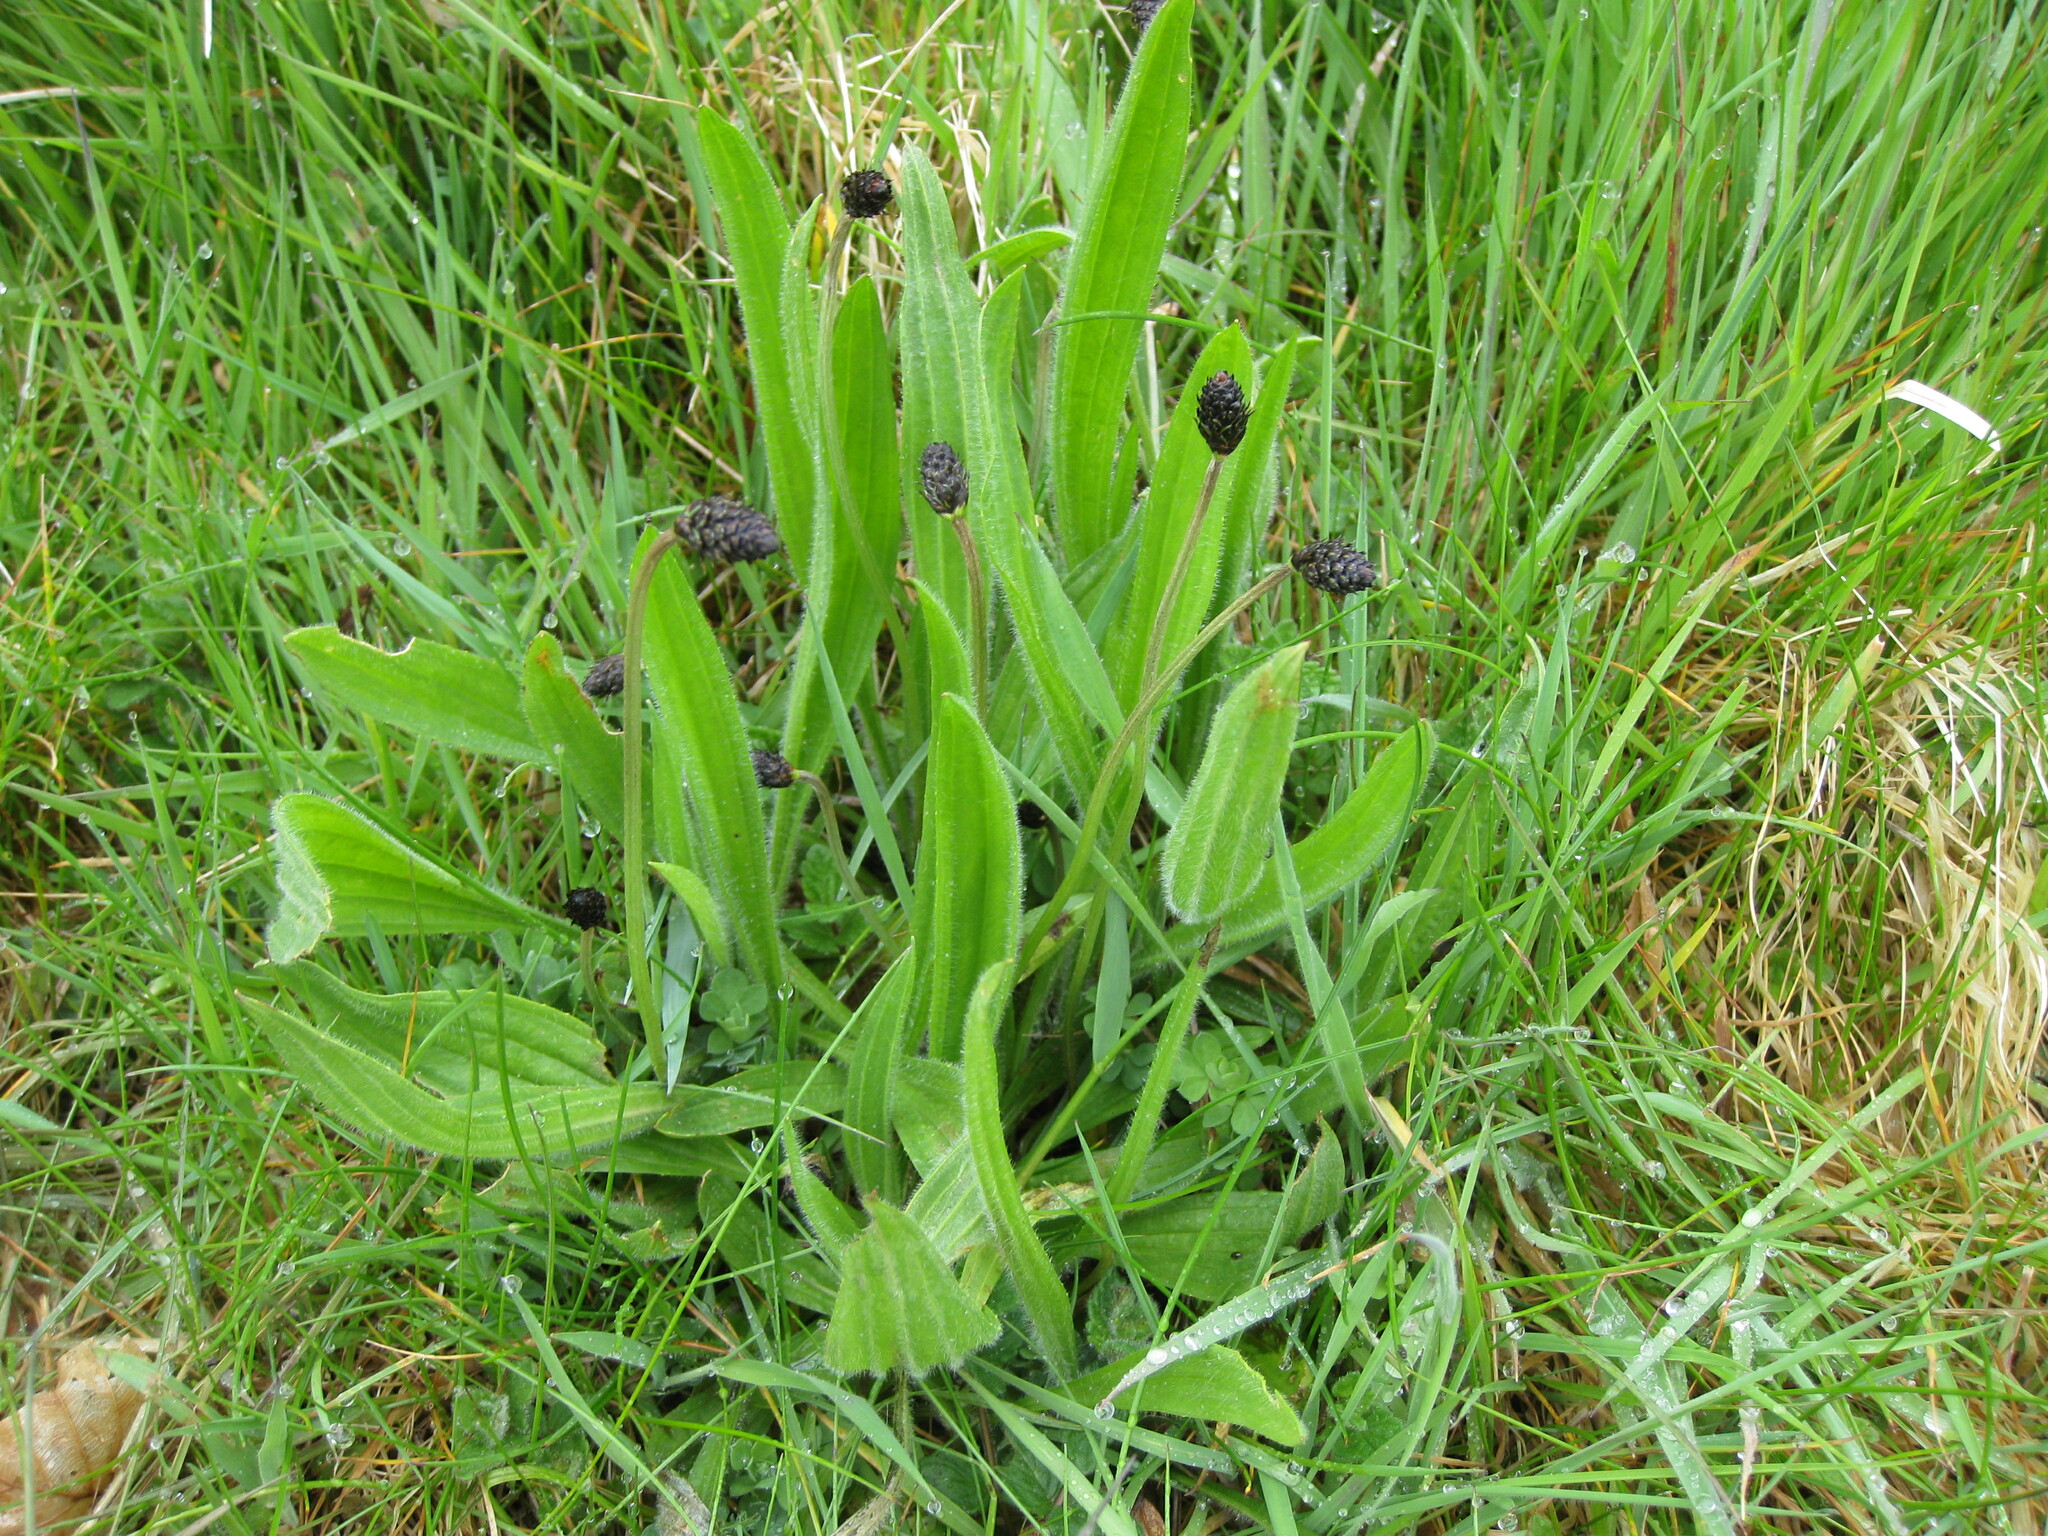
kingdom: Plantae
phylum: Tracheophyta
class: Magnoliopsida
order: Lamiales
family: Plantaginaceae
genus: Plantago
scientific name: Plantago lanceolata
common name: Ribwort plantain
